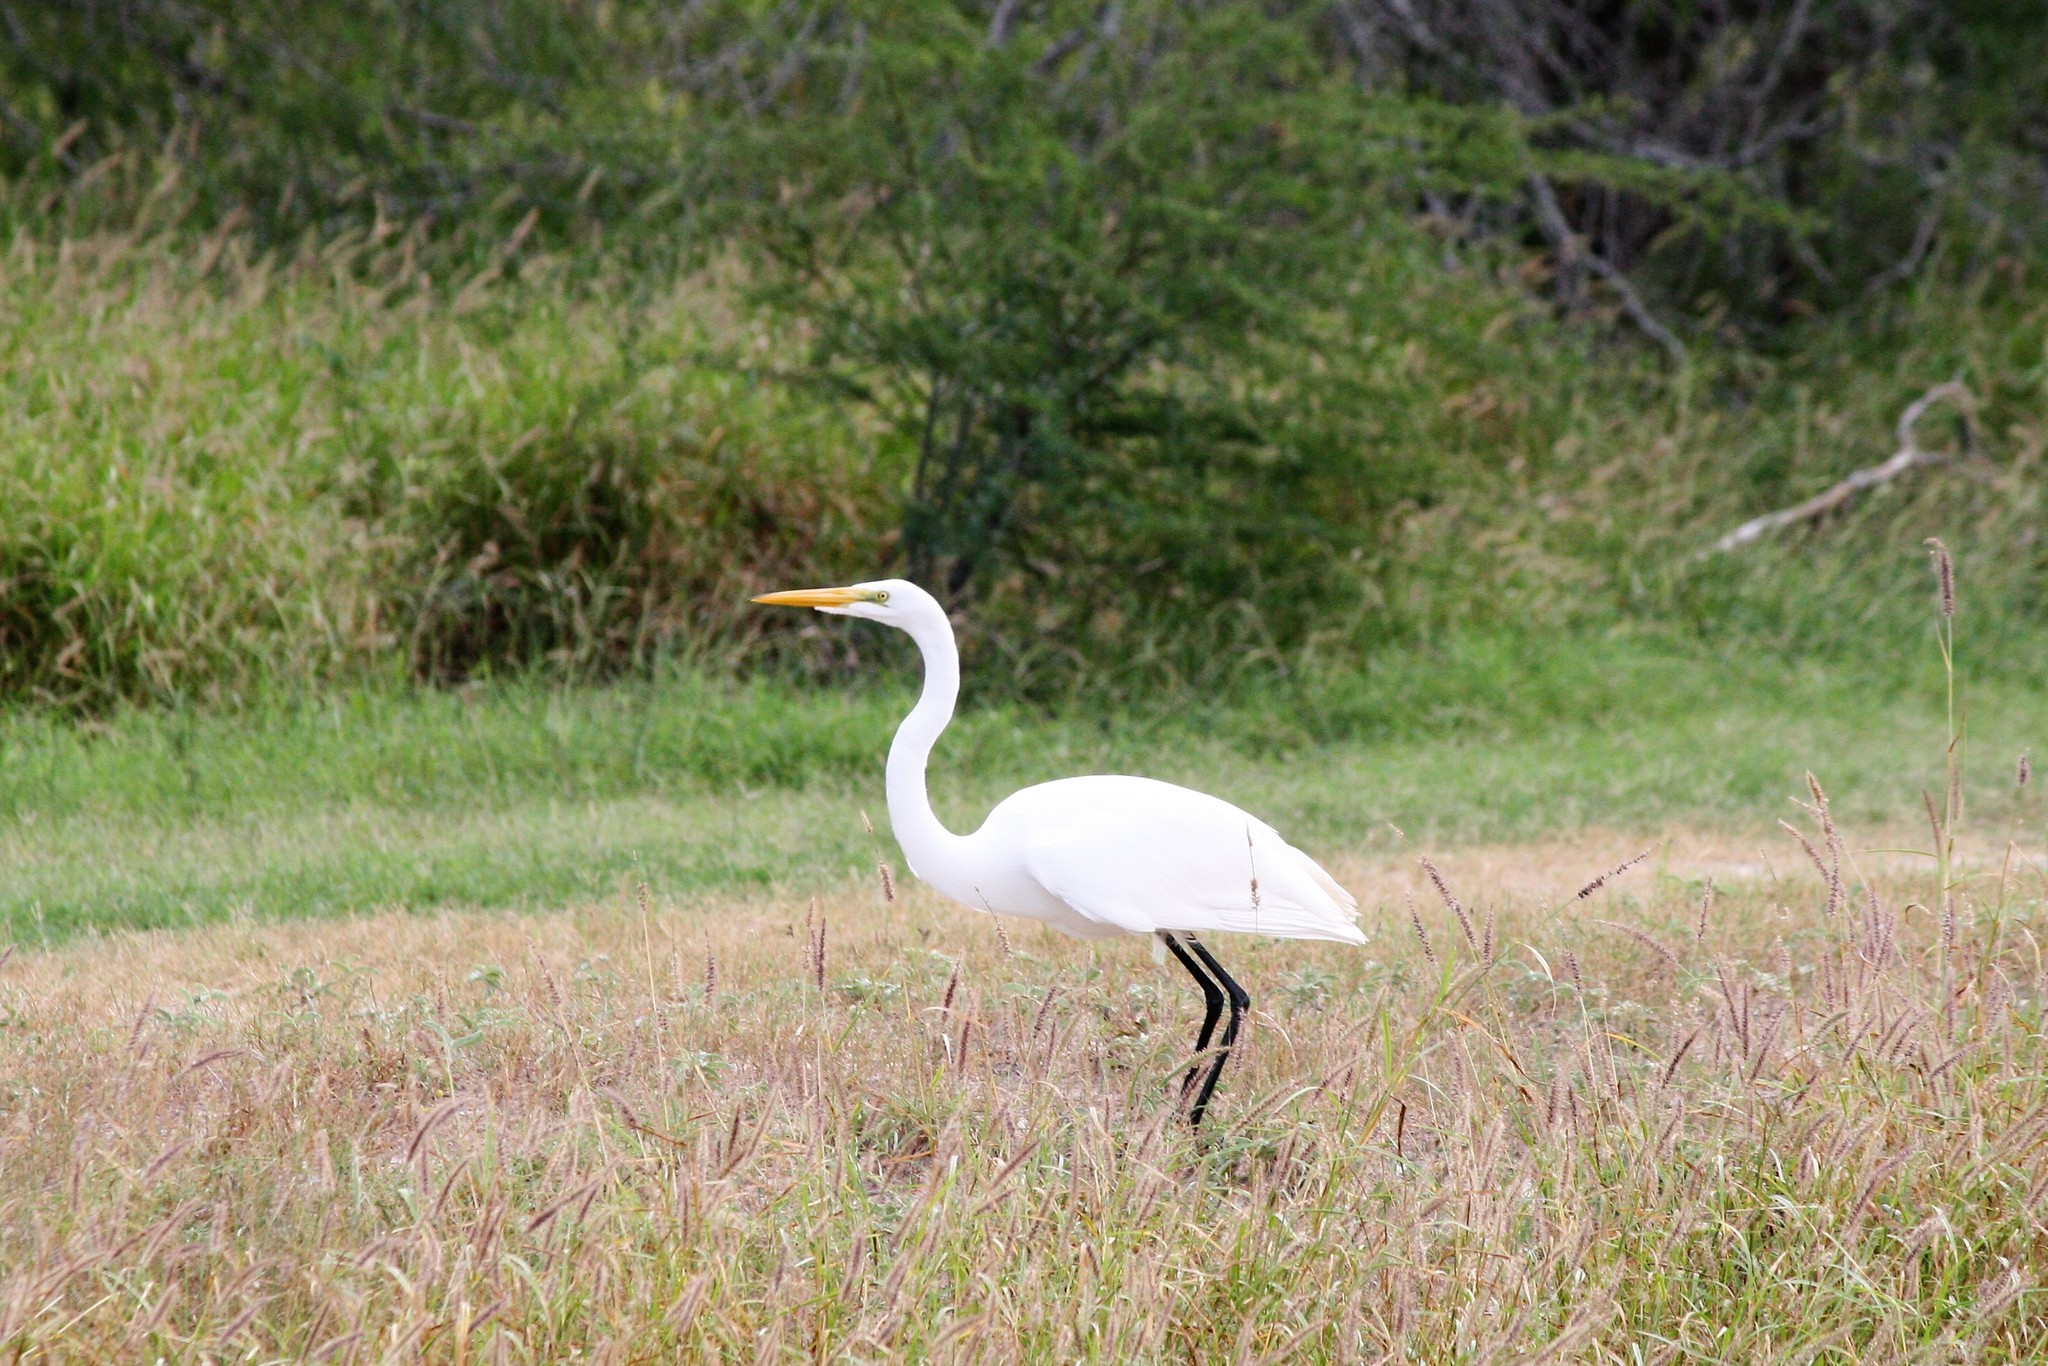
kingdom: Animalia
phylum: Chordata
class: Aves
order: Pelecaniformes
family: Ardeidae
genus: Ardea
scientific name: Ardea alba
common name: Great egret
